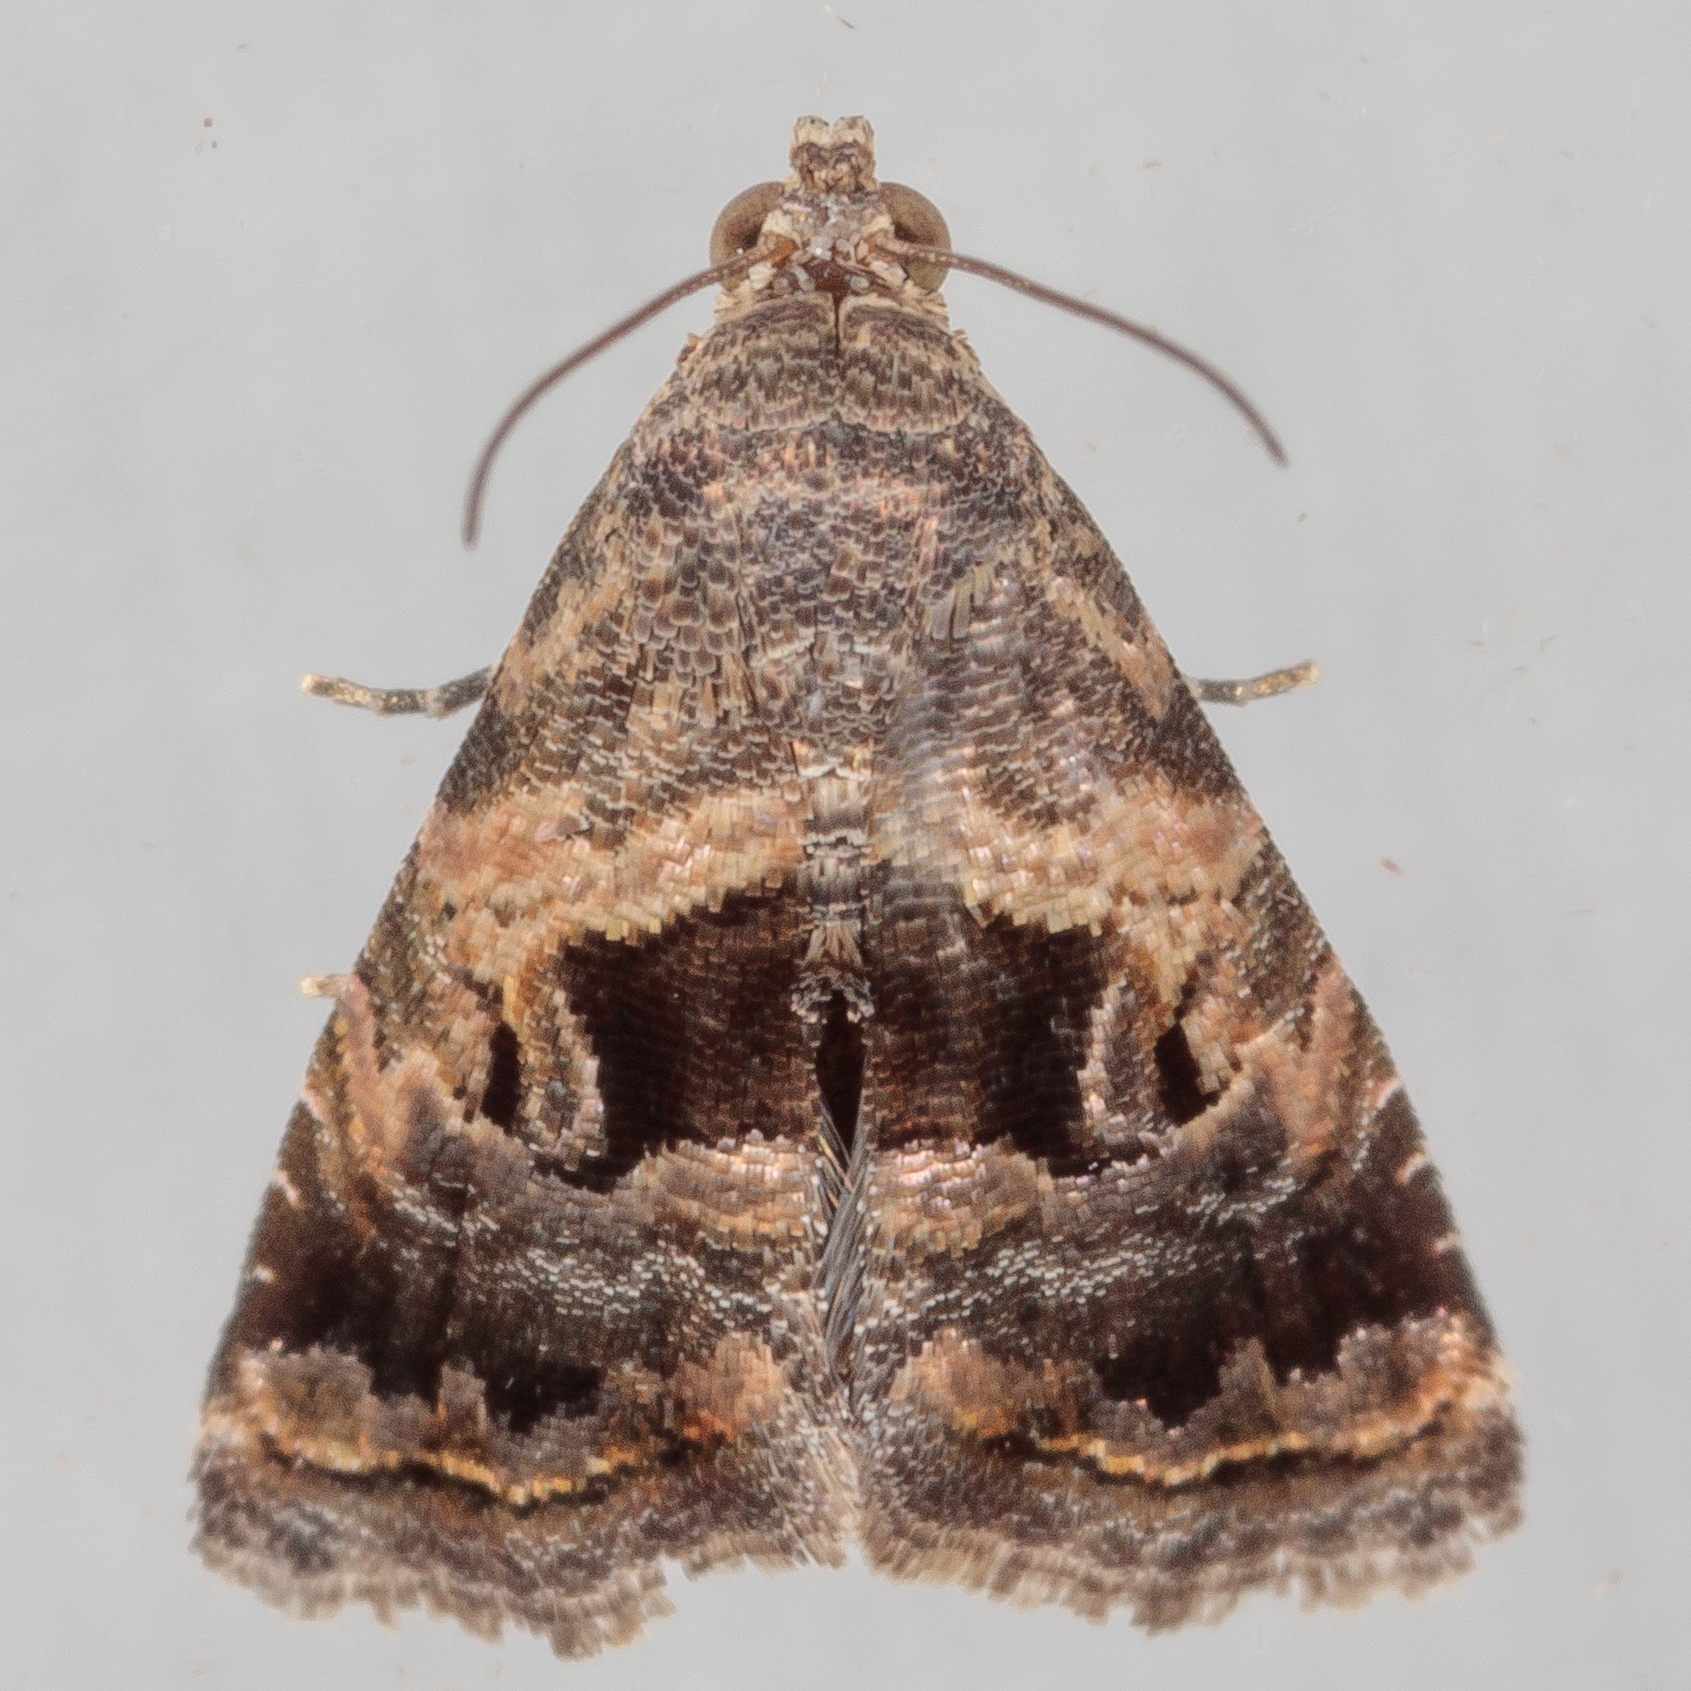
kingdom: Animalia
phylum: Arthropoda
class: Insecta
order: Lepidoptera
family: Noctuidae
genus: Tripudia
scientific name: Tripudia quadrifera
